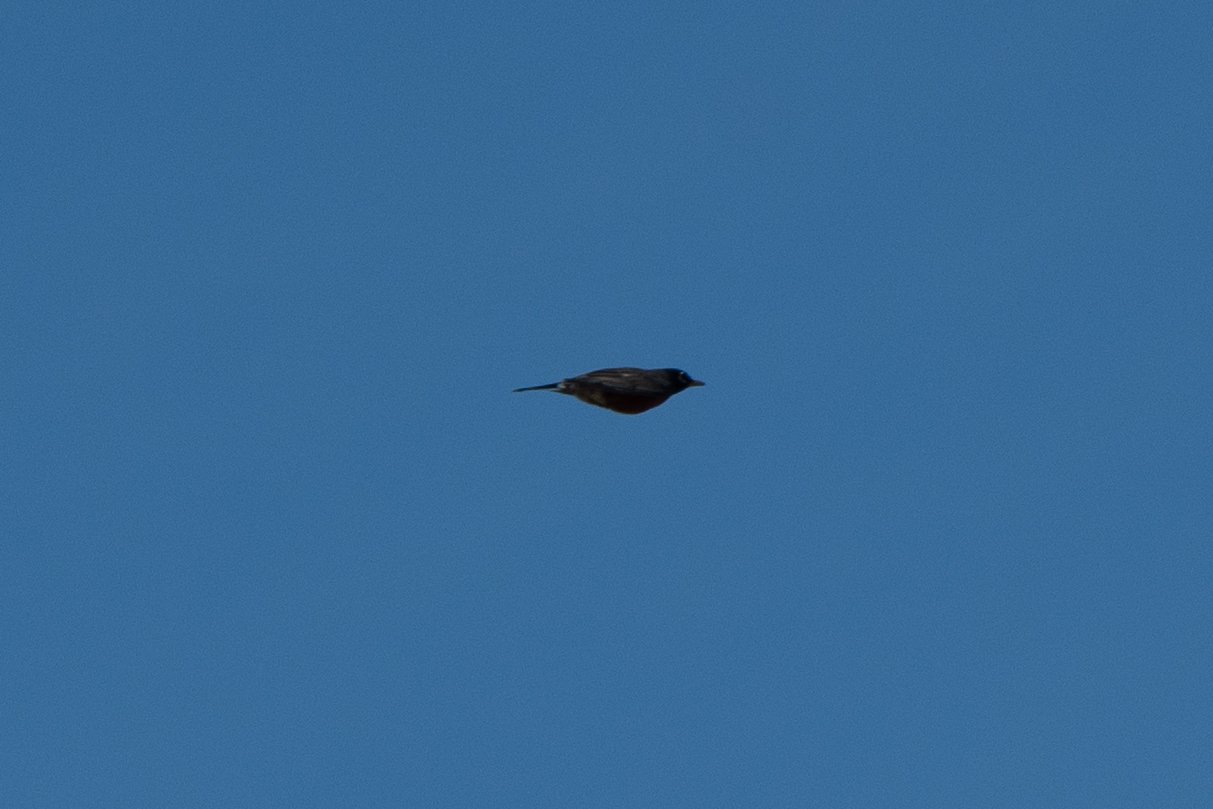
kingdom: Animalia
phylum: Chordata
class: Aves
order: Passeriformes
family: Turdidae
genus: Turdus
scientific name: Turdus migratorius
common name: American robin
